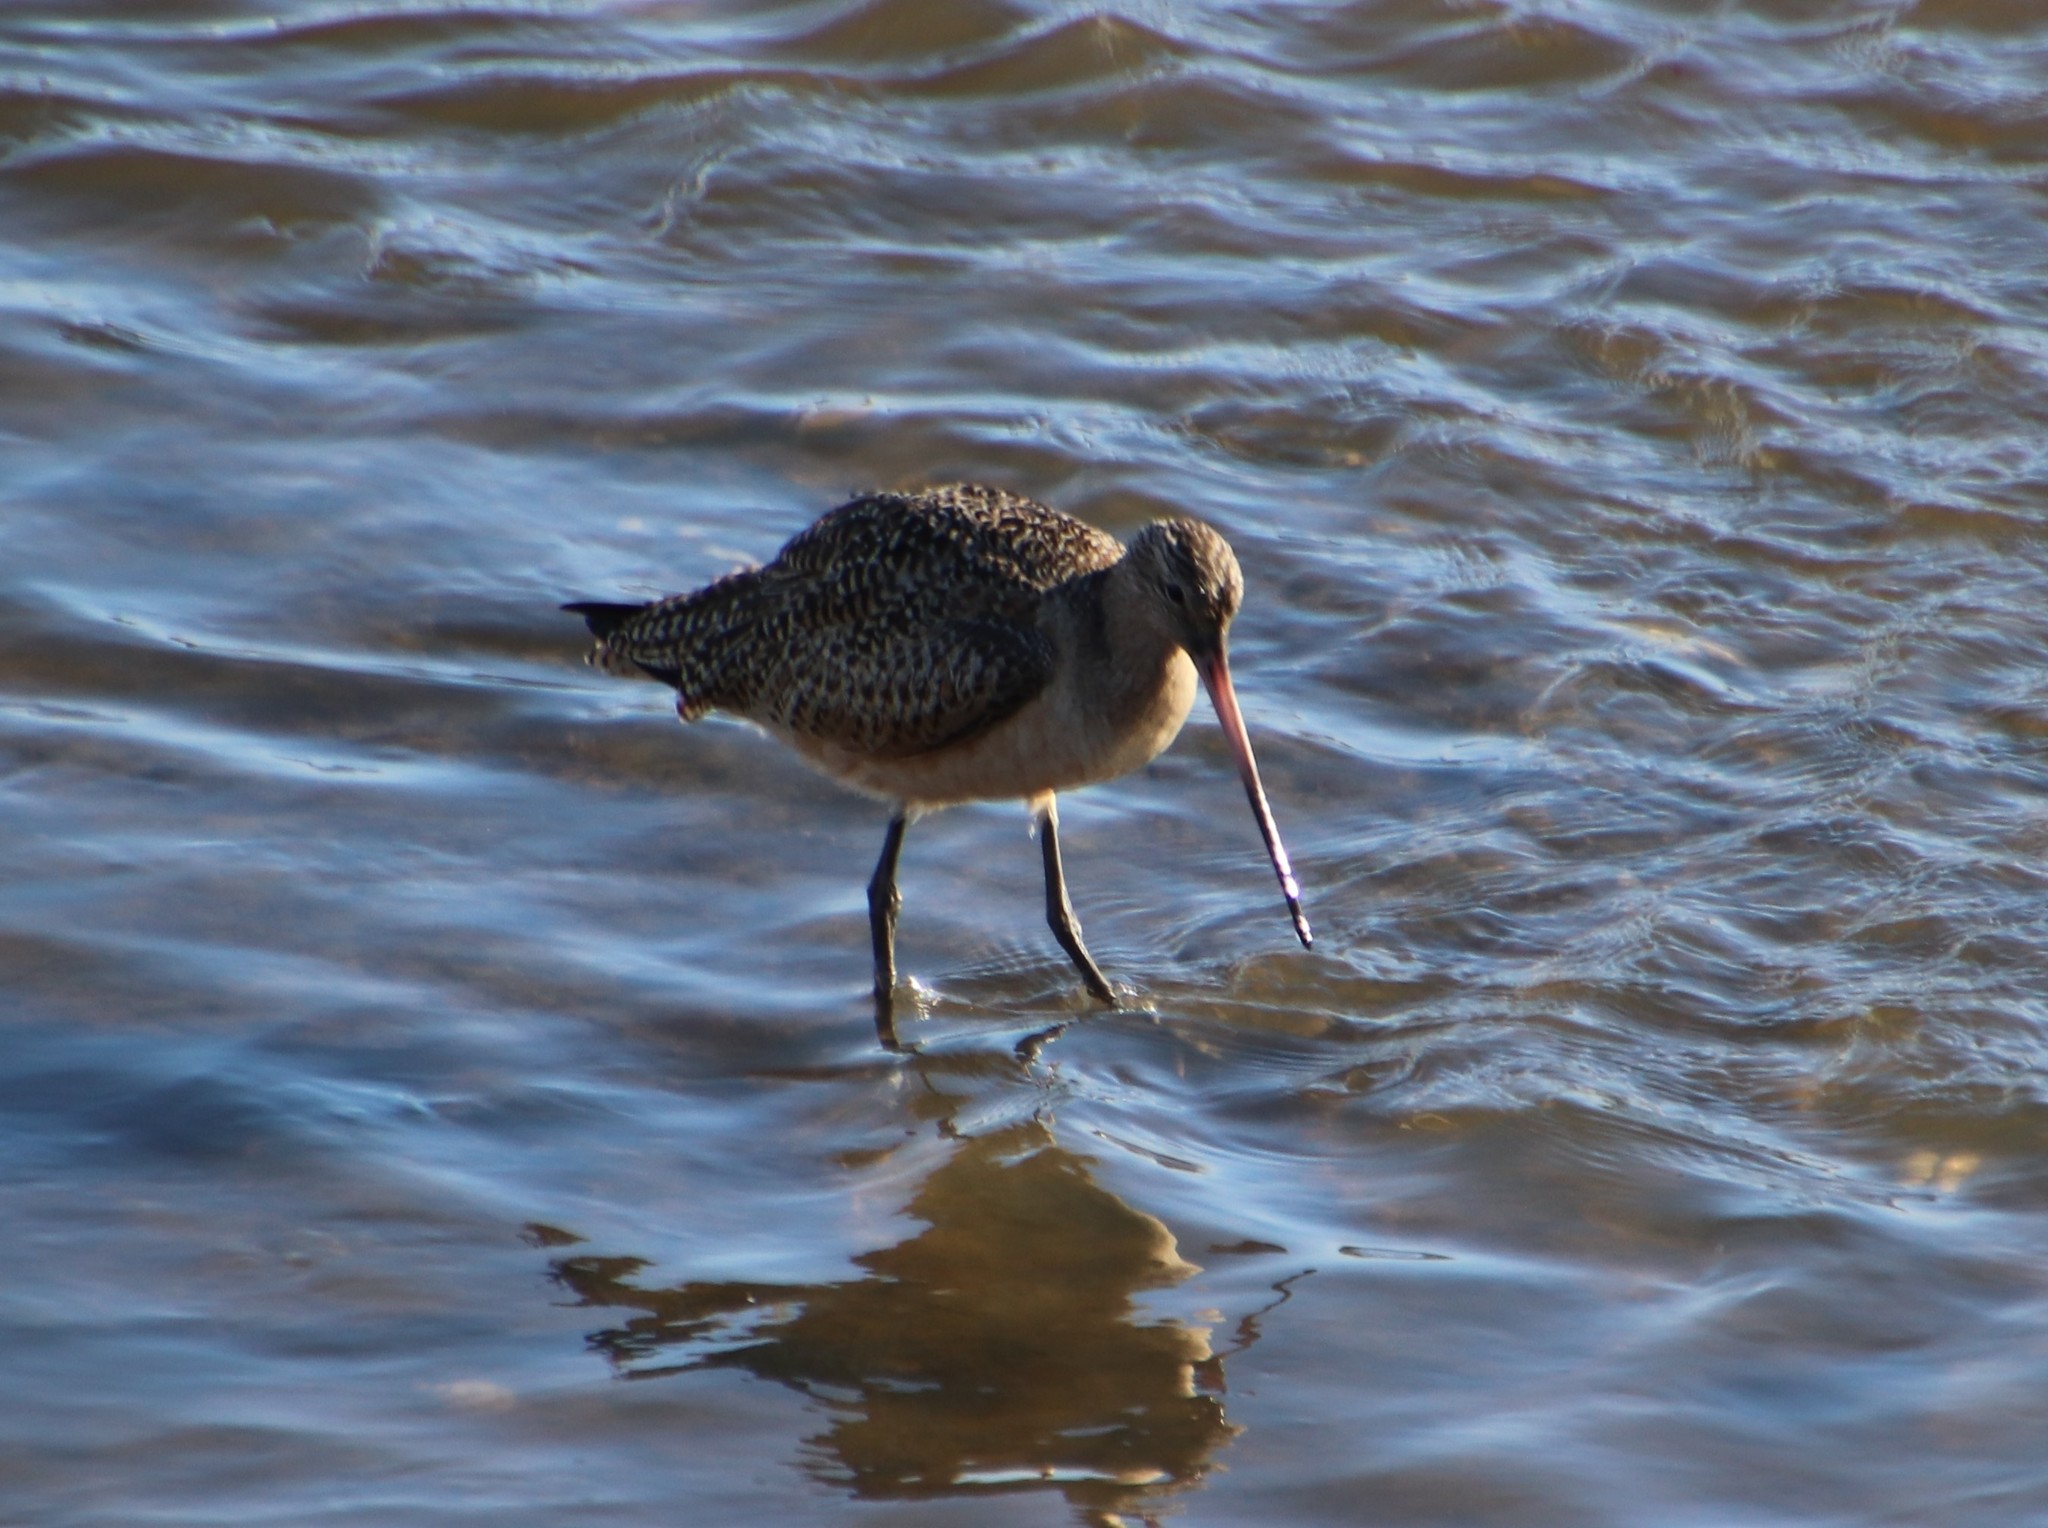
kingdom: Animalia
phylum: Chordata
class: Aves
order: Charadriiformes
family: Scolopacidae
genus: Limosa
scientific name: Limosa fedoa
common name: Marbled godwit
